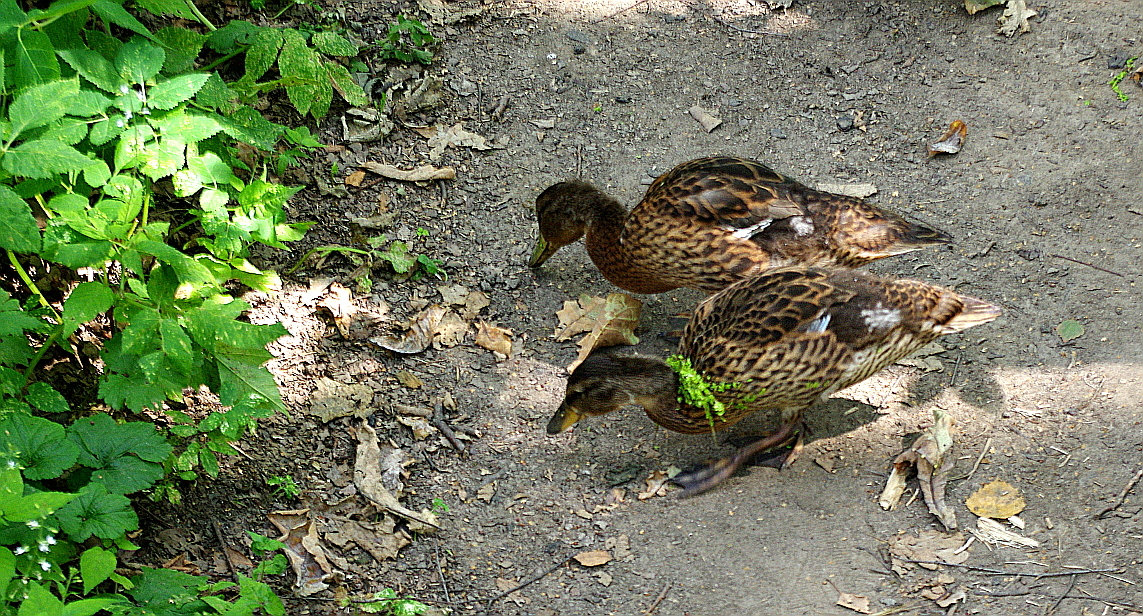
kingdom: Animalia
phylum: Chordata
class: Aves
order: Anseriformes
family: Anatidae
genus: Anas
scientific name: Anas platyrhynchos
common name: Mallard
